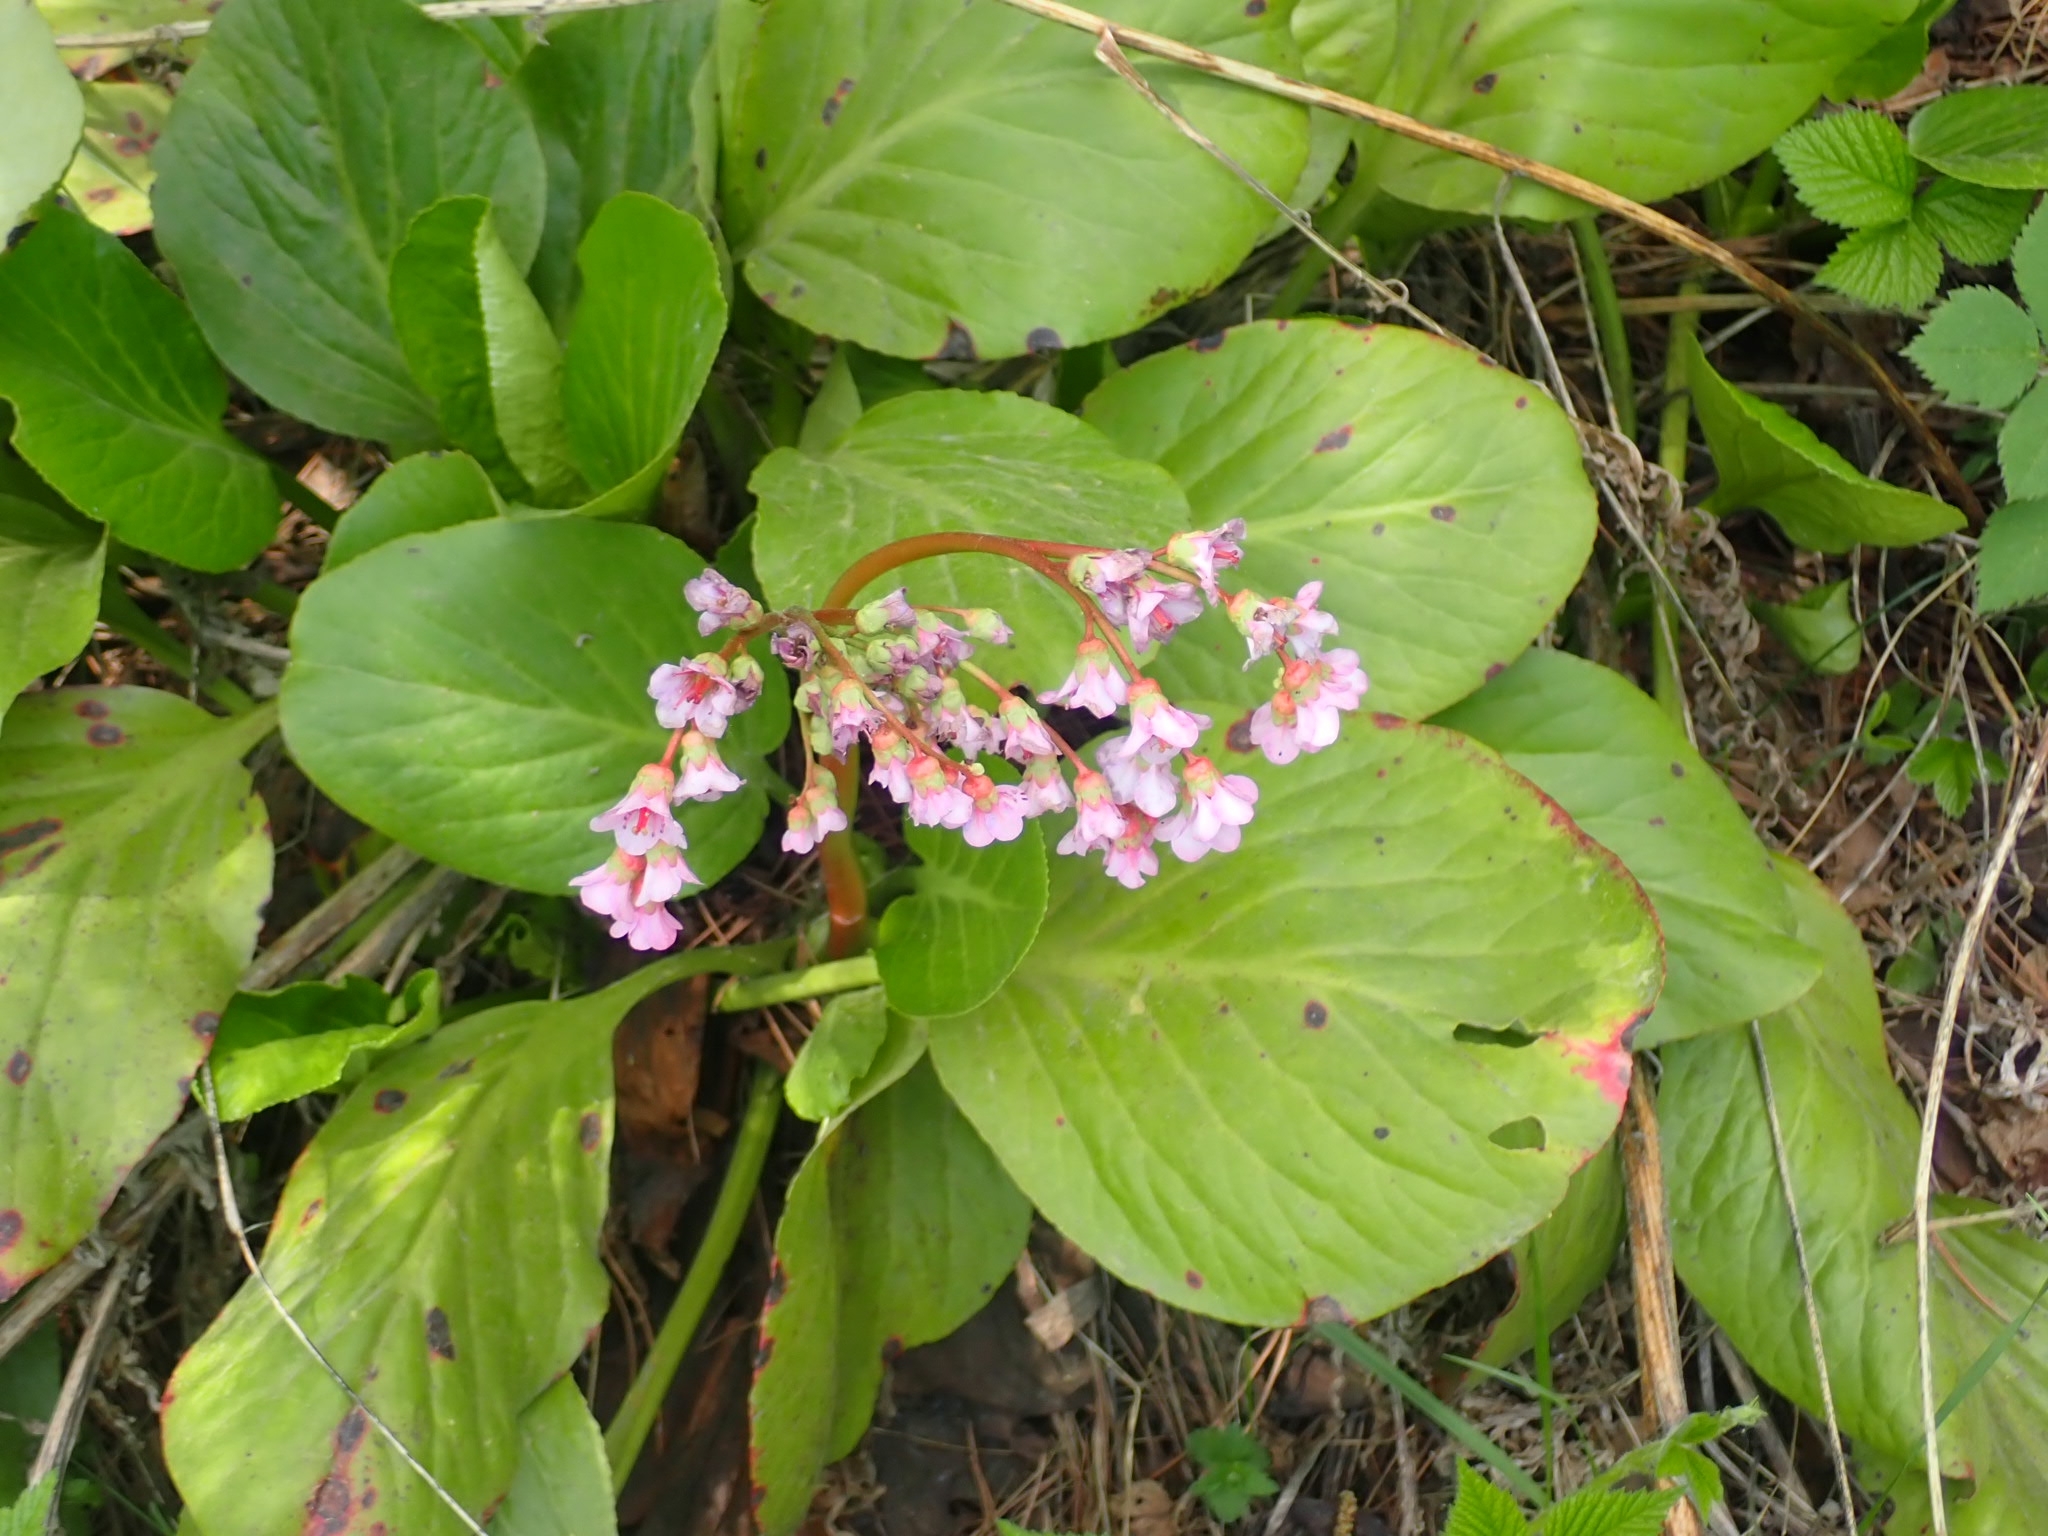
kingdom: Plantae
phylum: Tracheophyta
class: Magnoliopsida
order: Saxifragales
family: Saxifragaceae
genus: Bergenia
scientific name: Bergenia crassifolia
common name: Elephant-ears
